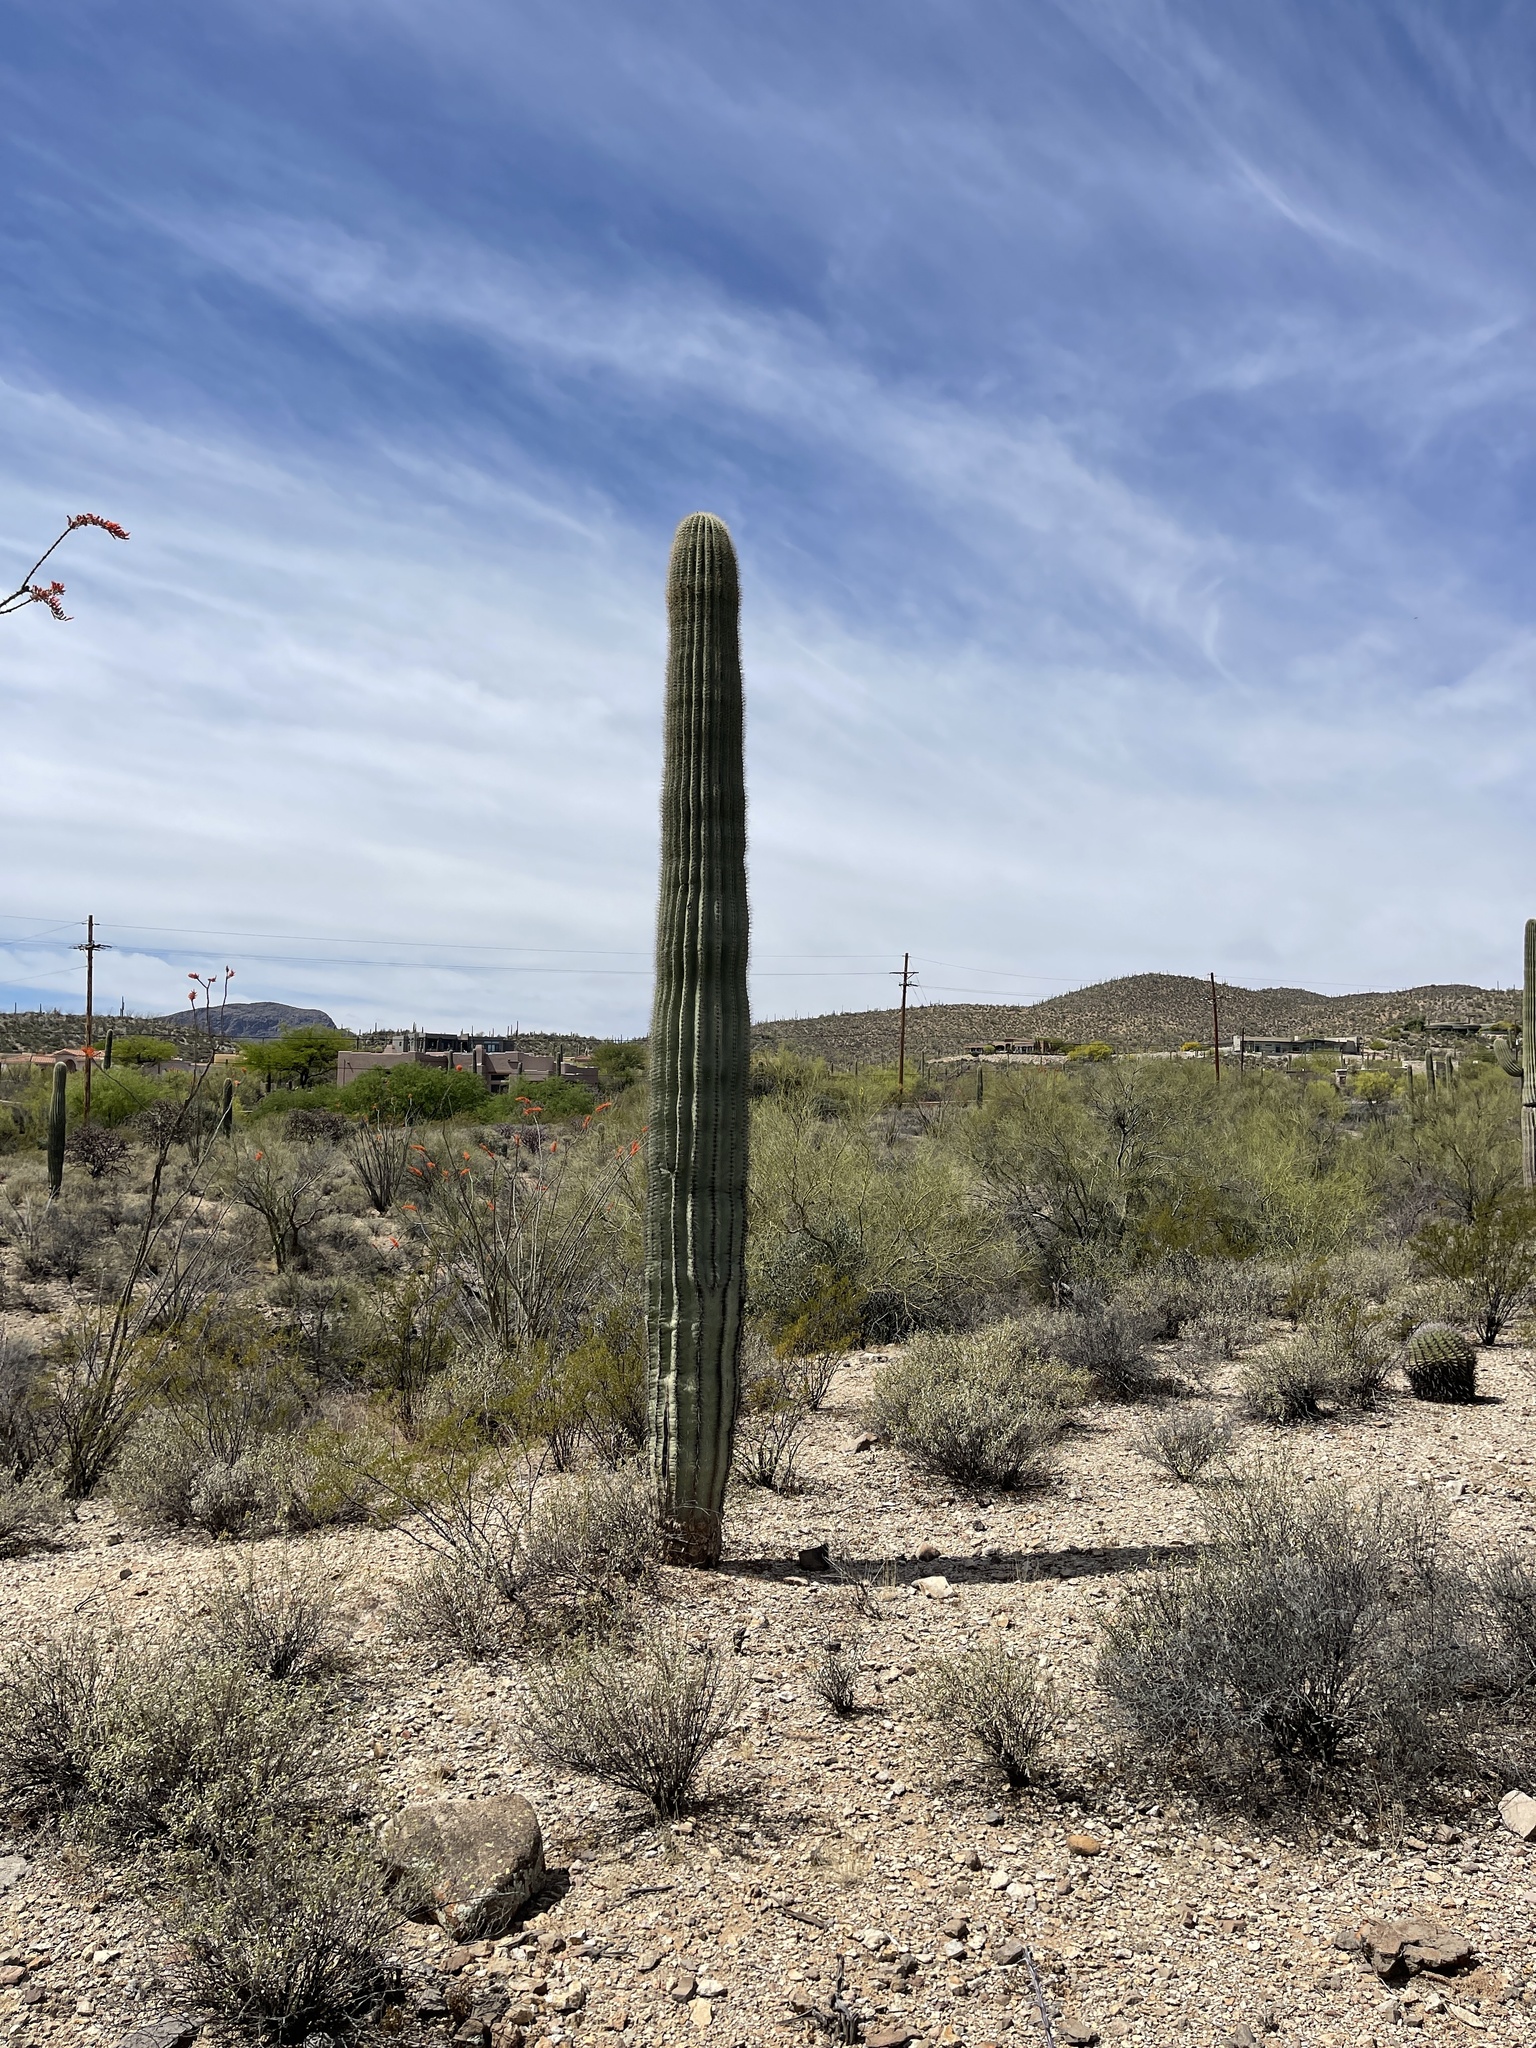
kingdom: Plantae
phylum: Tracheophyta
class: Magnoliopsida
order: Caryophyllales
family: Cactaceae
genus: Carnegiea
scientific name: Carnegiea gigantea
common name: Saguaro
